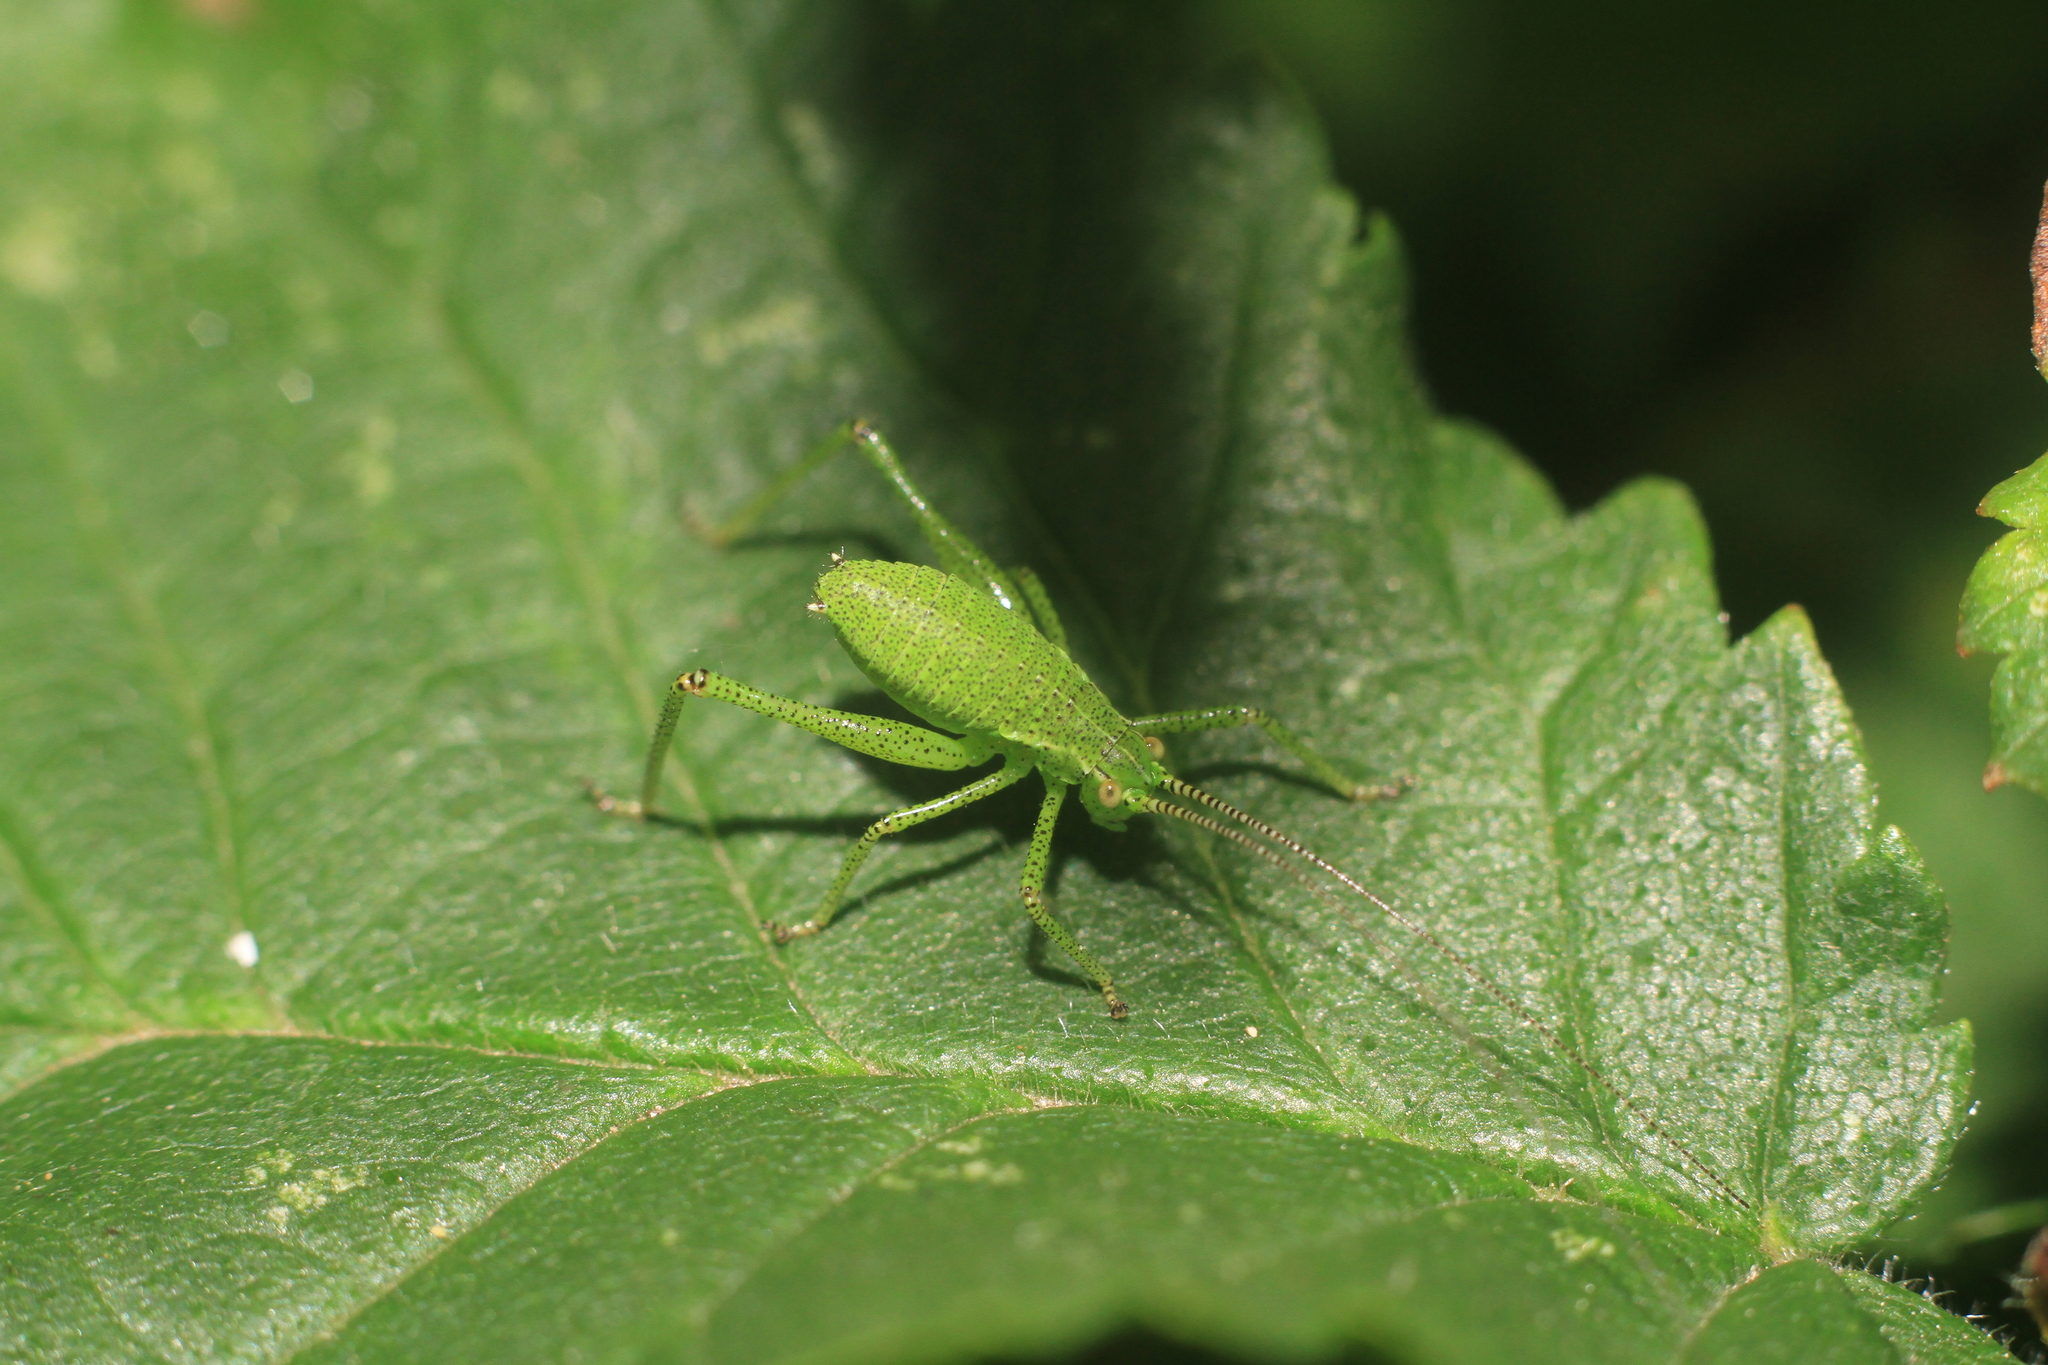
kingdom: Animalia
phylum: Arthropoda
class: Insecta
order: Orthoptera
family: Tettigoniidae
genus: Leptophyes
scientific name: Leptophyes punctatissima
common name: Speckled bush-cricket
